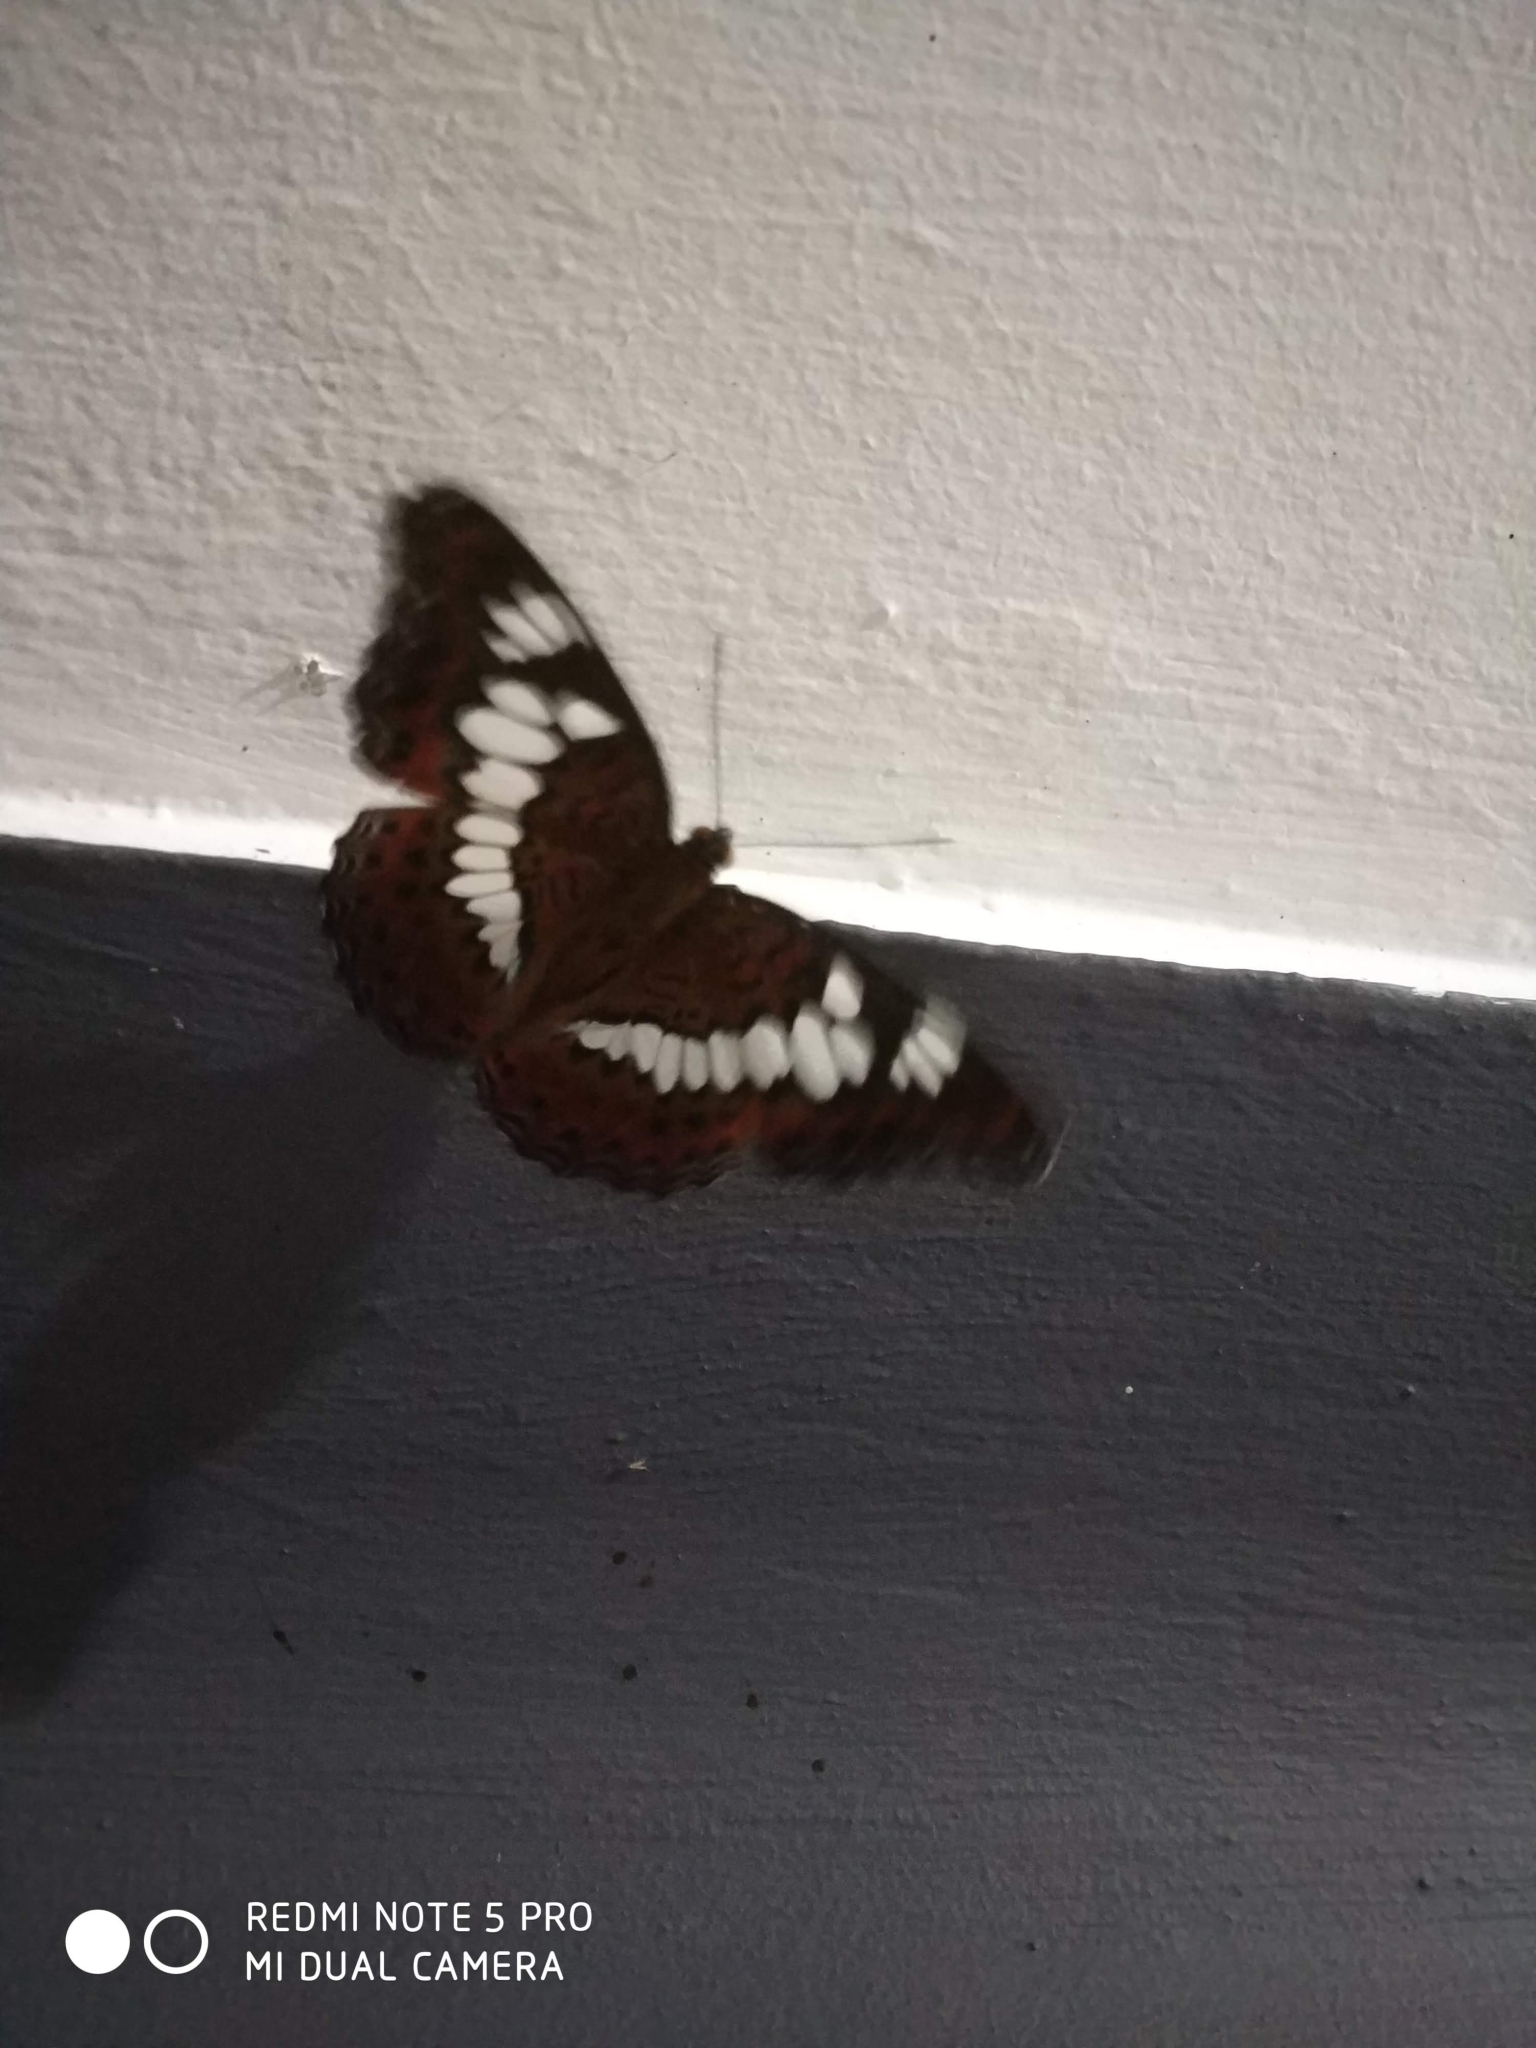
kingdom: Animalia
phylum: Arthropoda
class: Insecta
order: Lepidoptera
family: Nymphalidae
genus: Limenitis
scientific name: Limenitis Moduza procris
